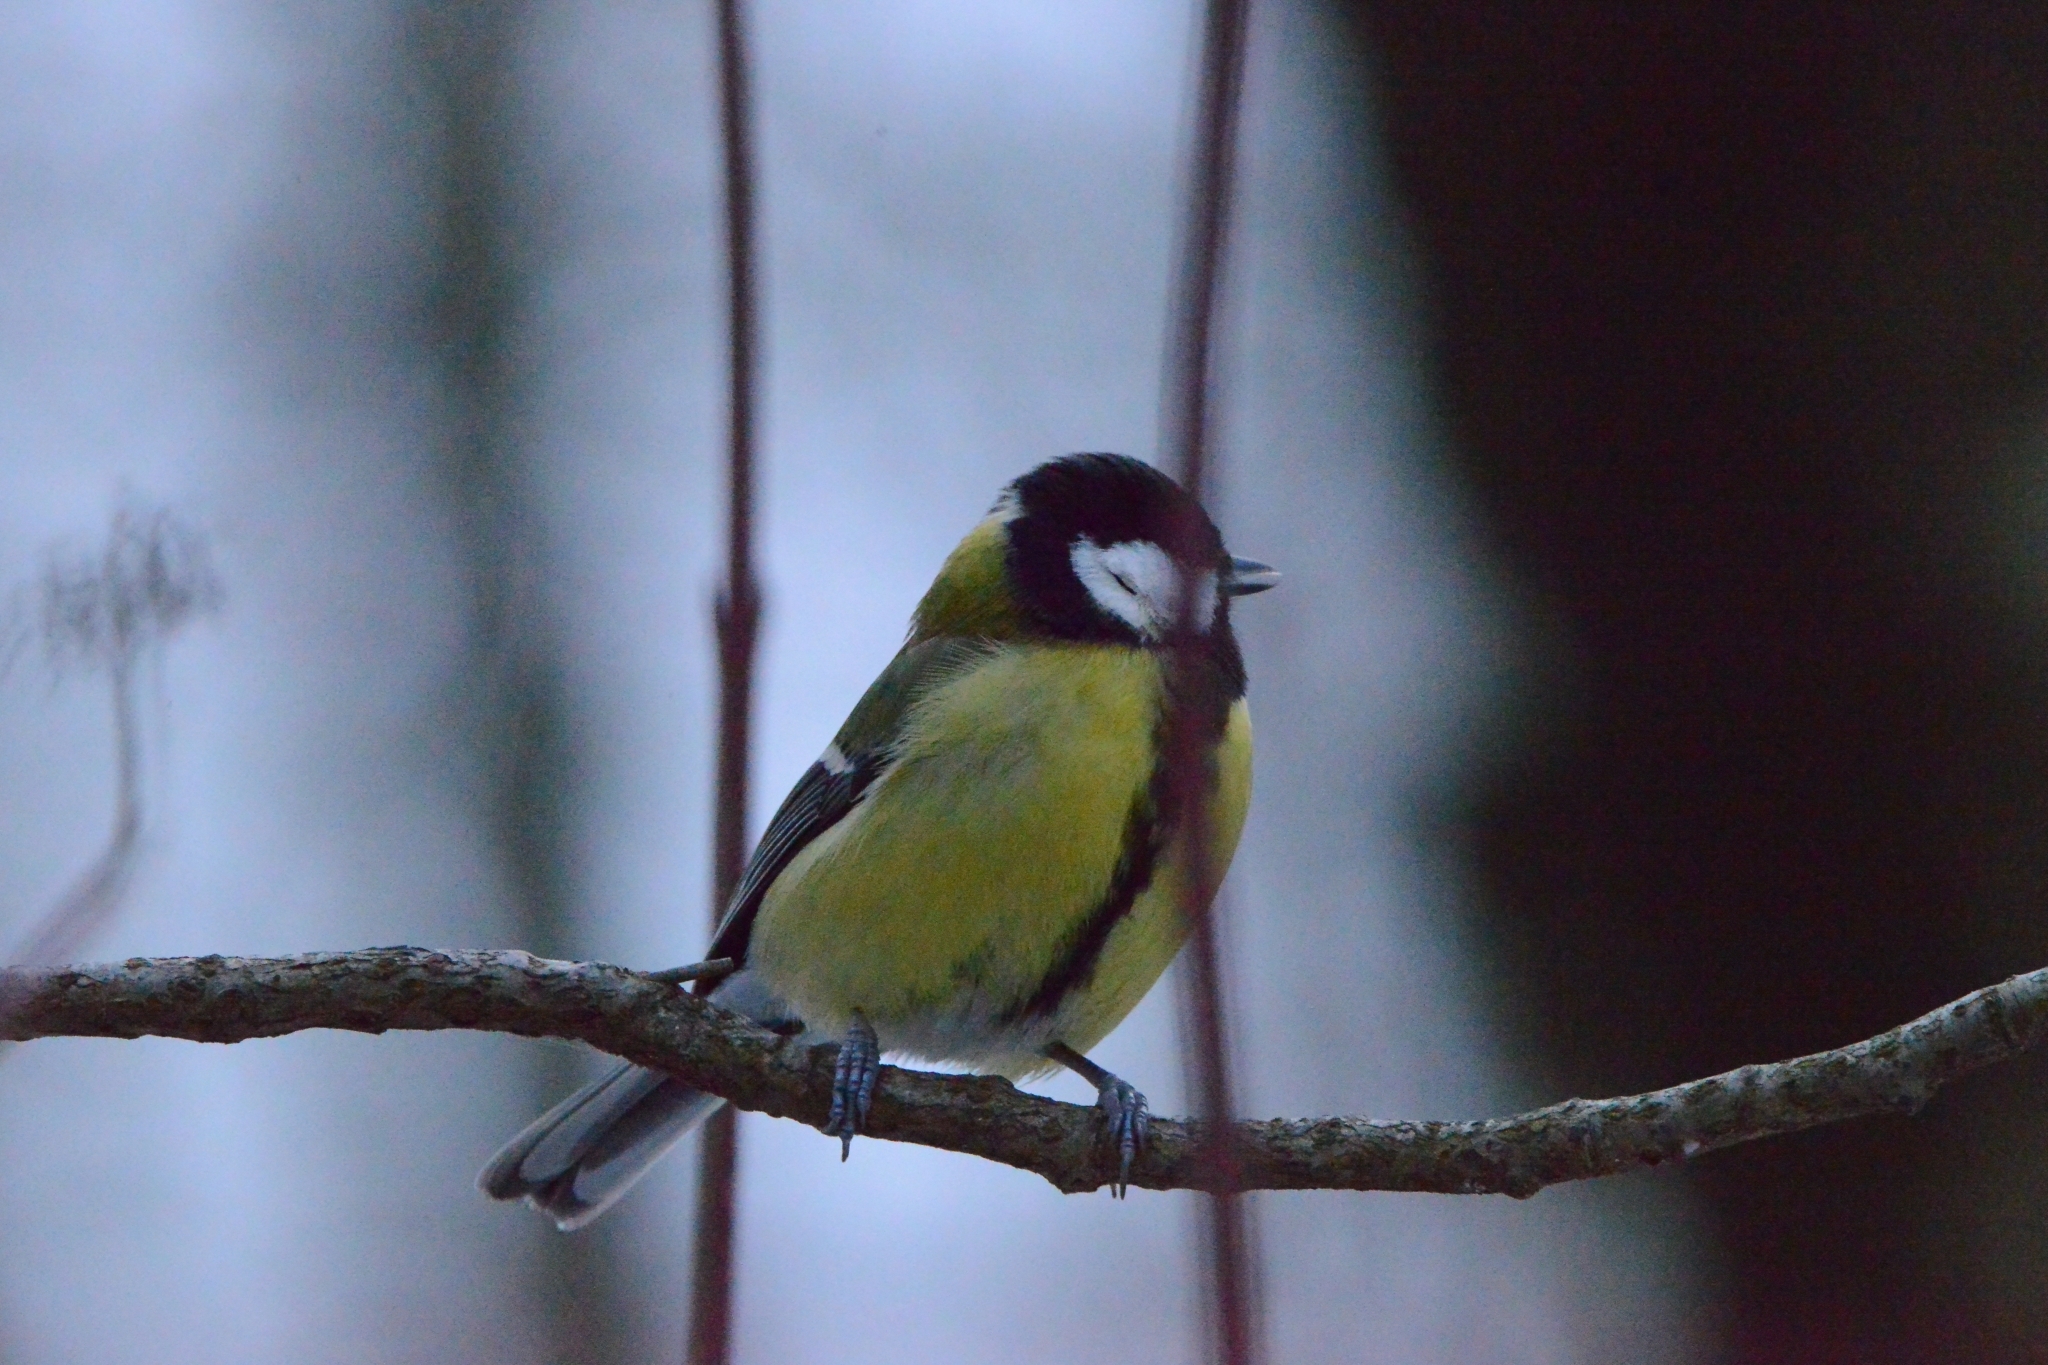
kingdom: Animalia
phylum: Chordata
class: Aves
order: Passeriformes
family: Paridae
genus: Parus
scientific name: Parus major
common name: Great tit
